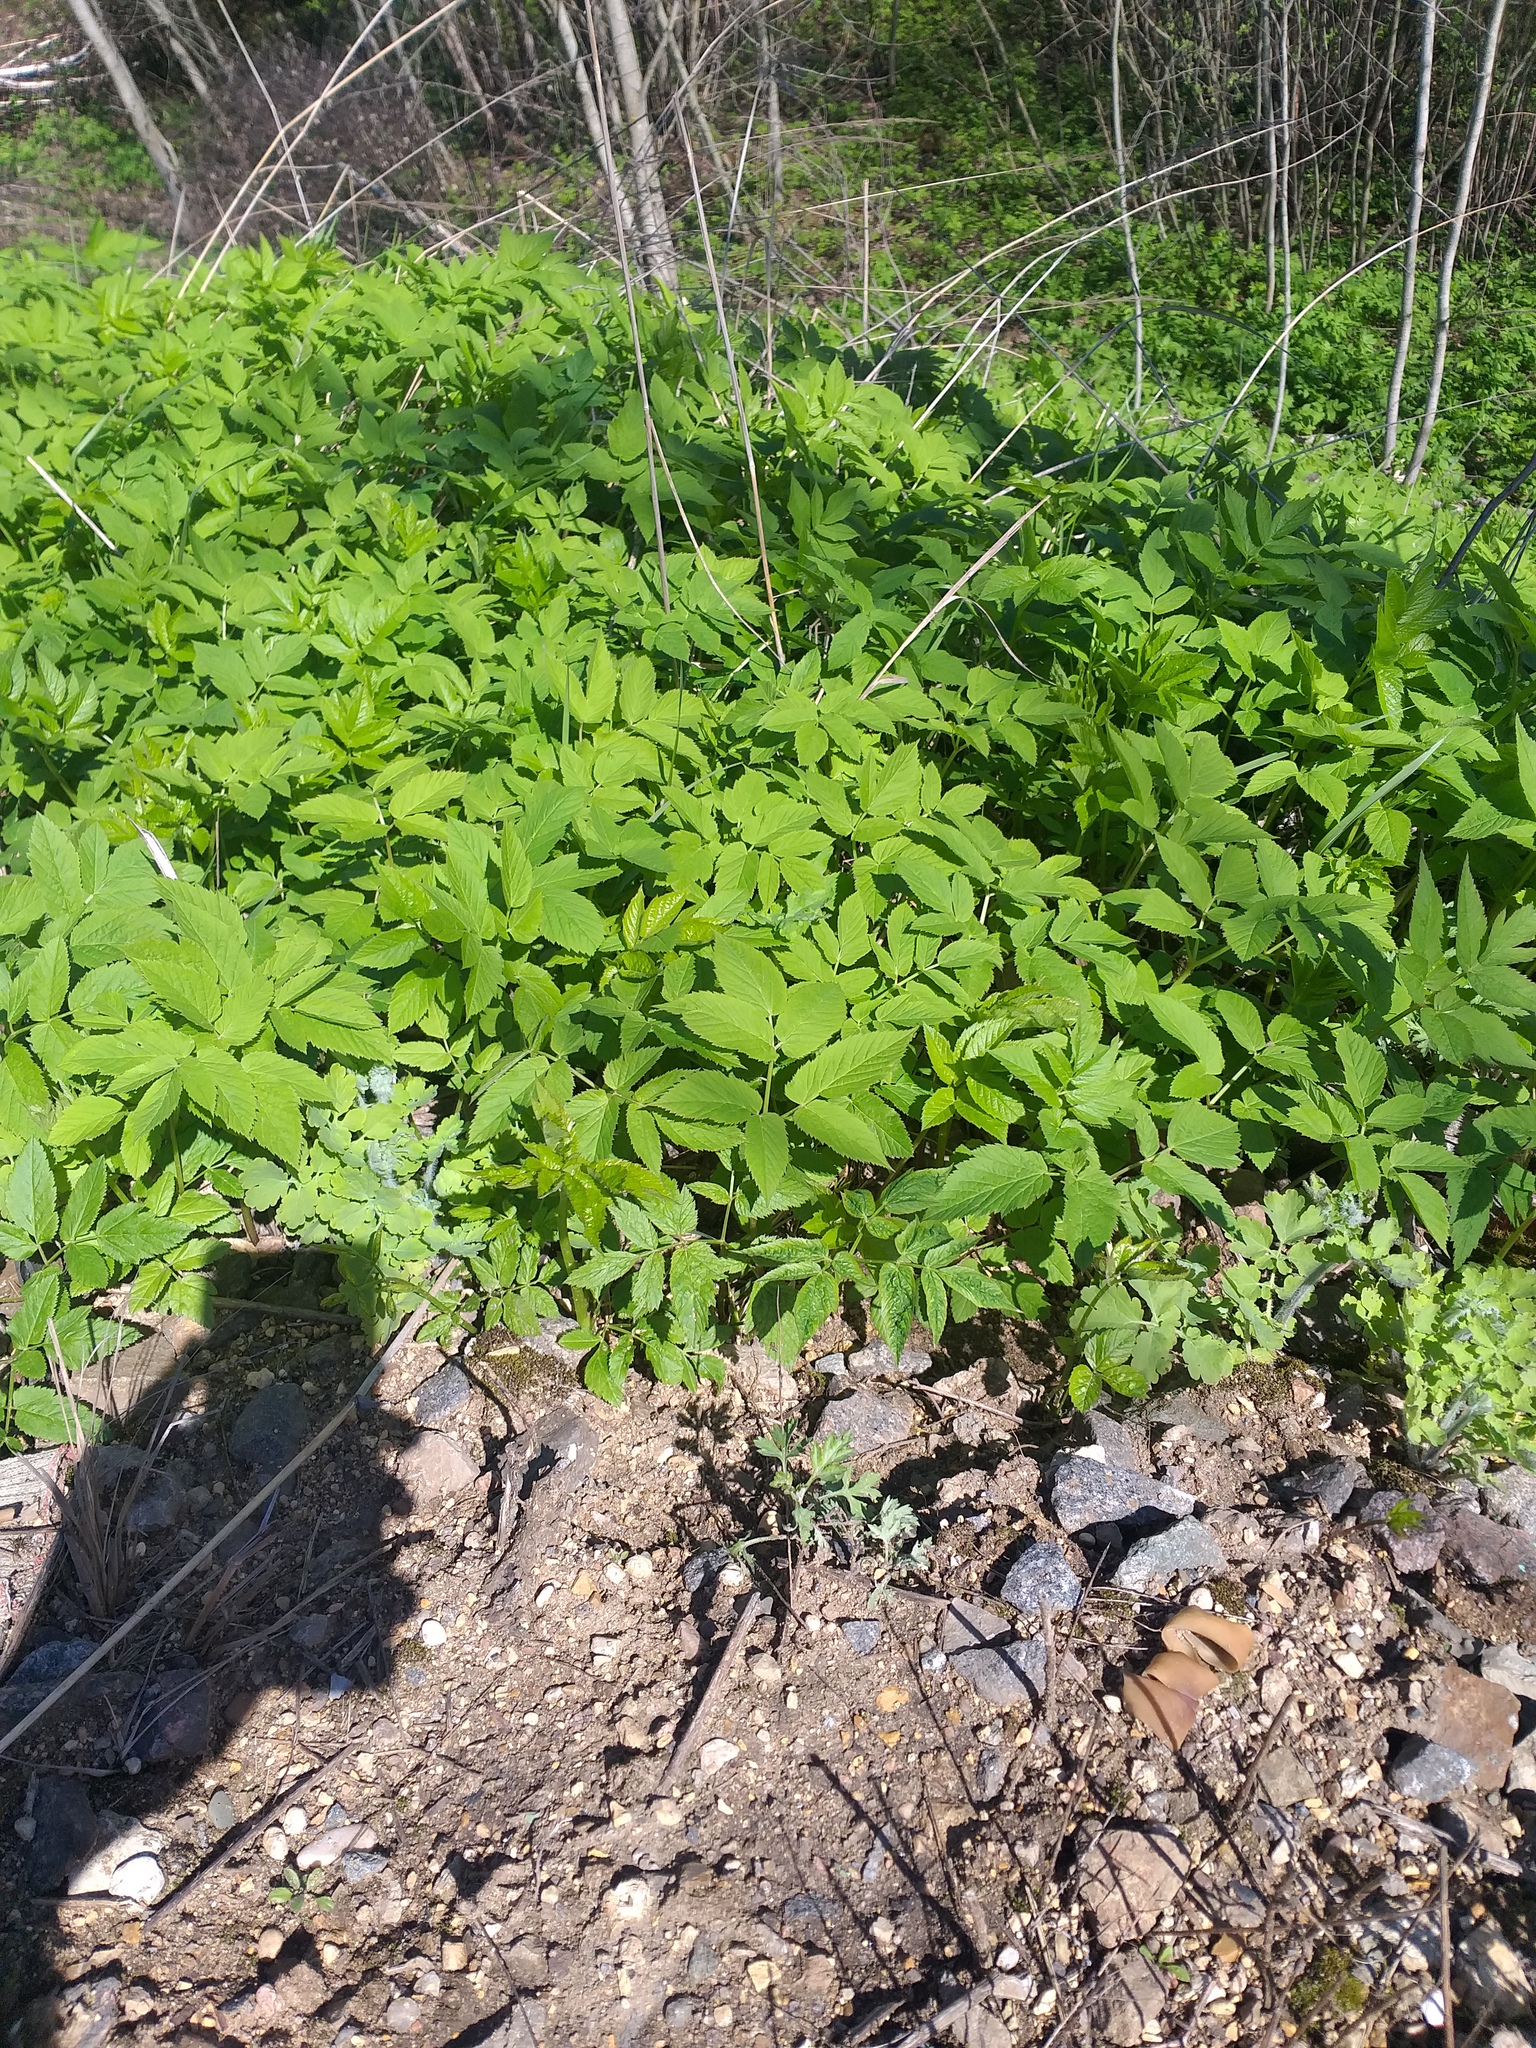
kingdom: Plantae
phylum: Tracheophyta
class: Magnoliopsida
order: Apiales
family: Apiaceae
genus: Aegopodium
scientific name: Aegopodium podagraria
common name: Ground-elder
